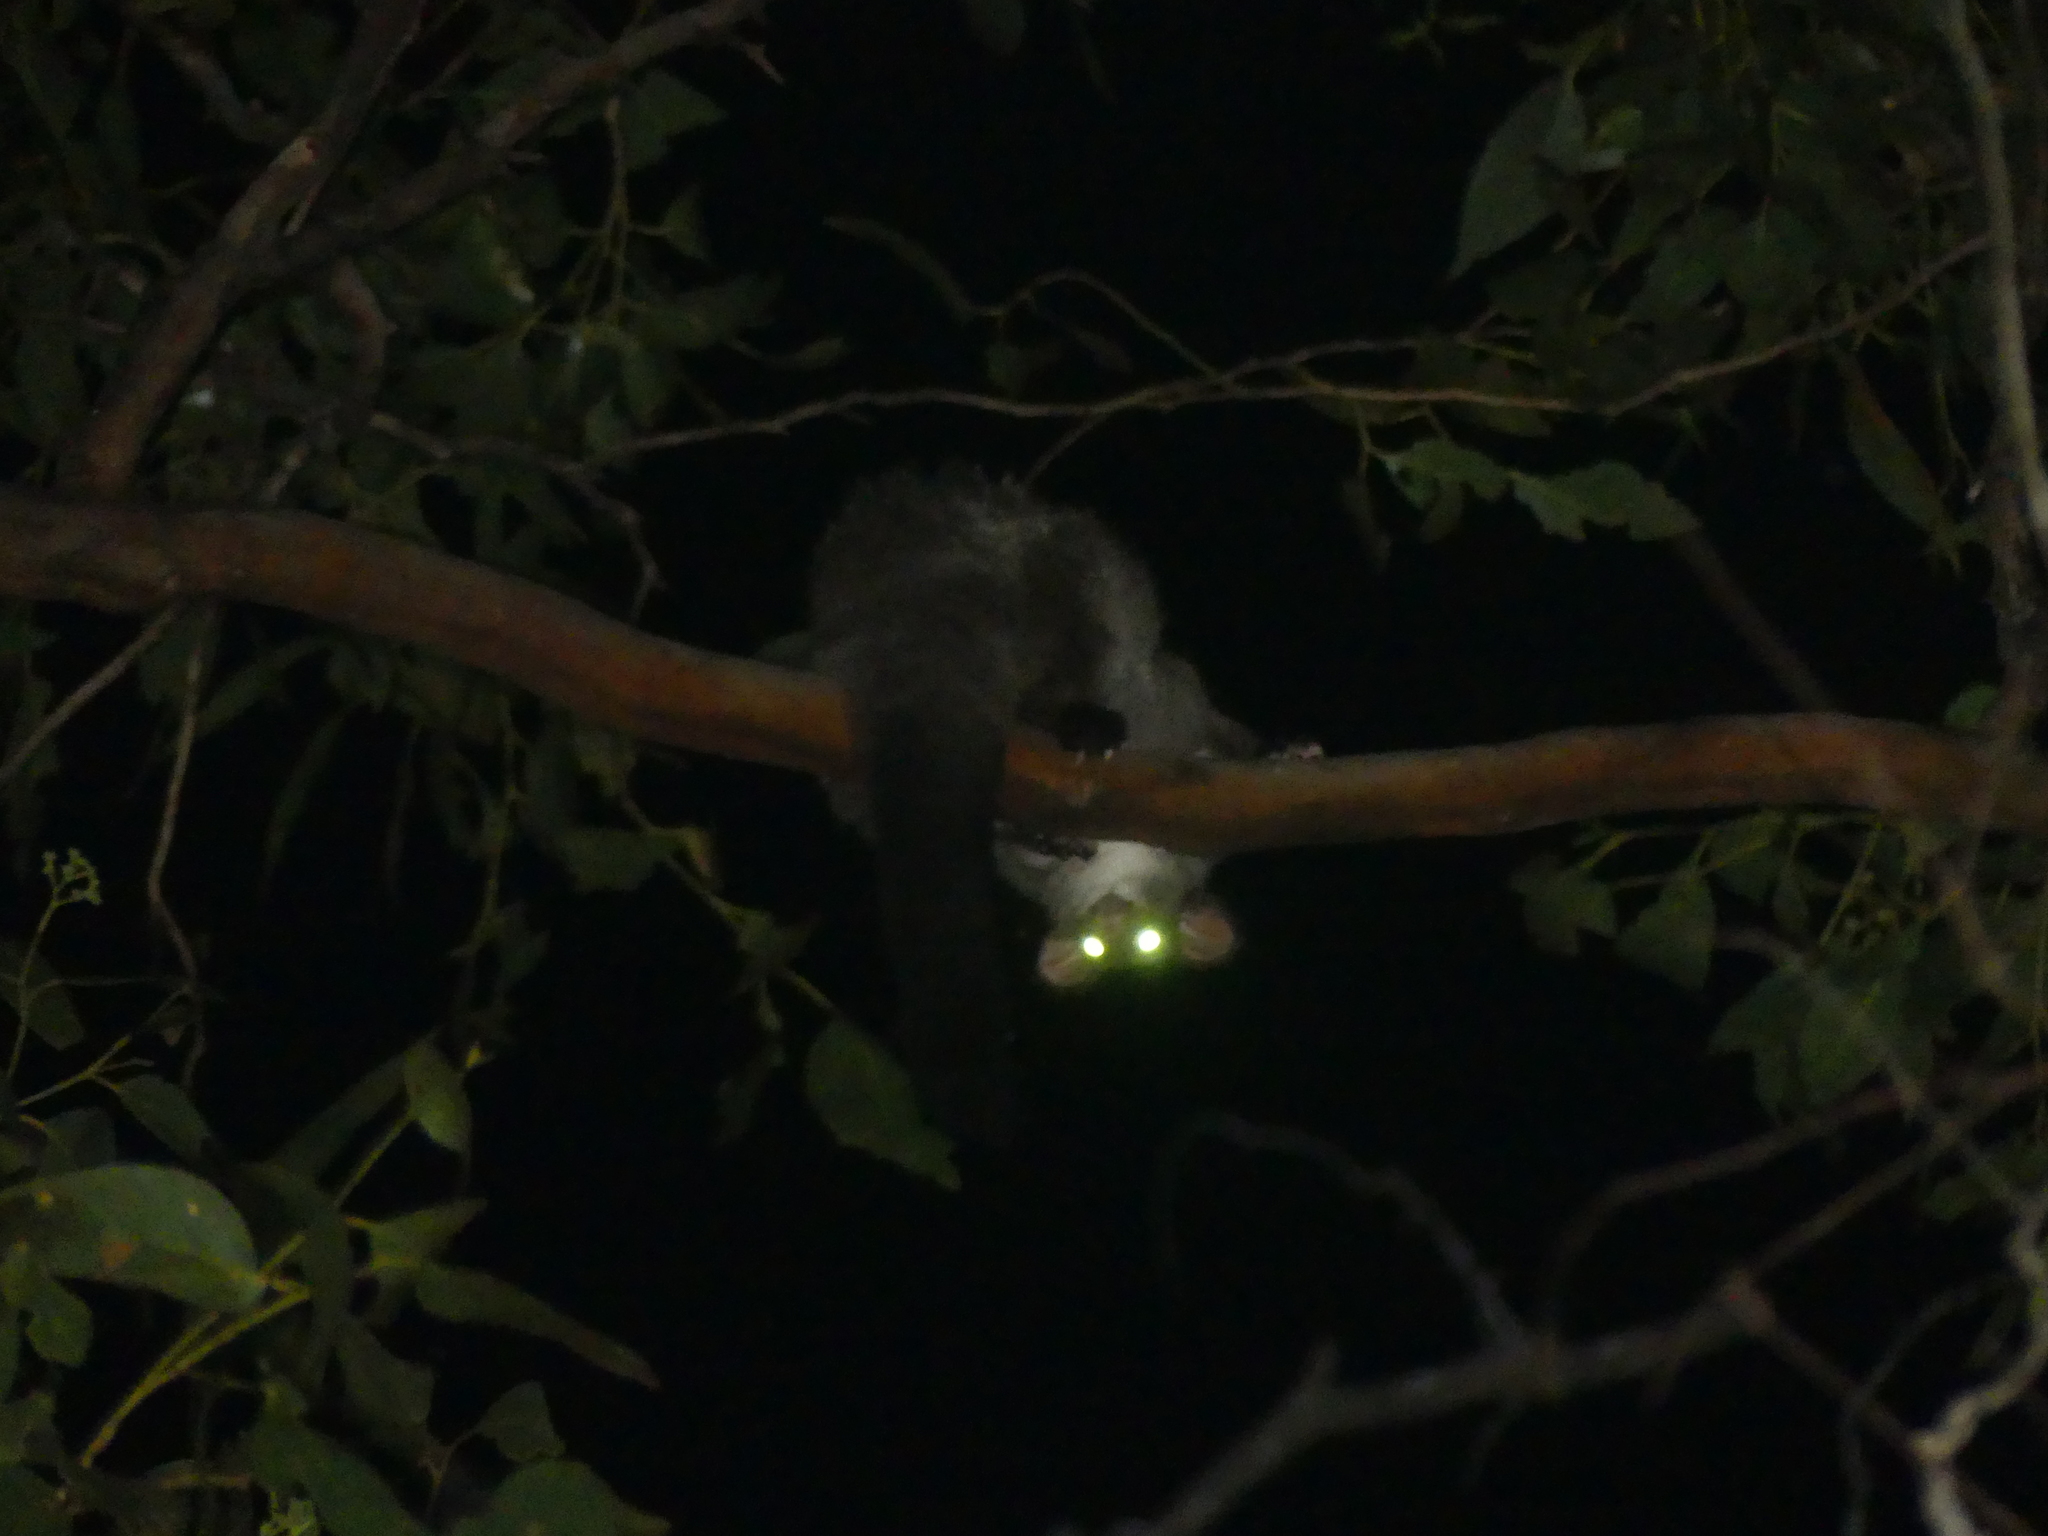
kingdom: Animalia
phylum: Chordata
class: Mammalia
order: Diprotodontia
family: Pseudocheiridae
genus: Petauroides
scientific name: Petauroides volans
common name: Greater glider
